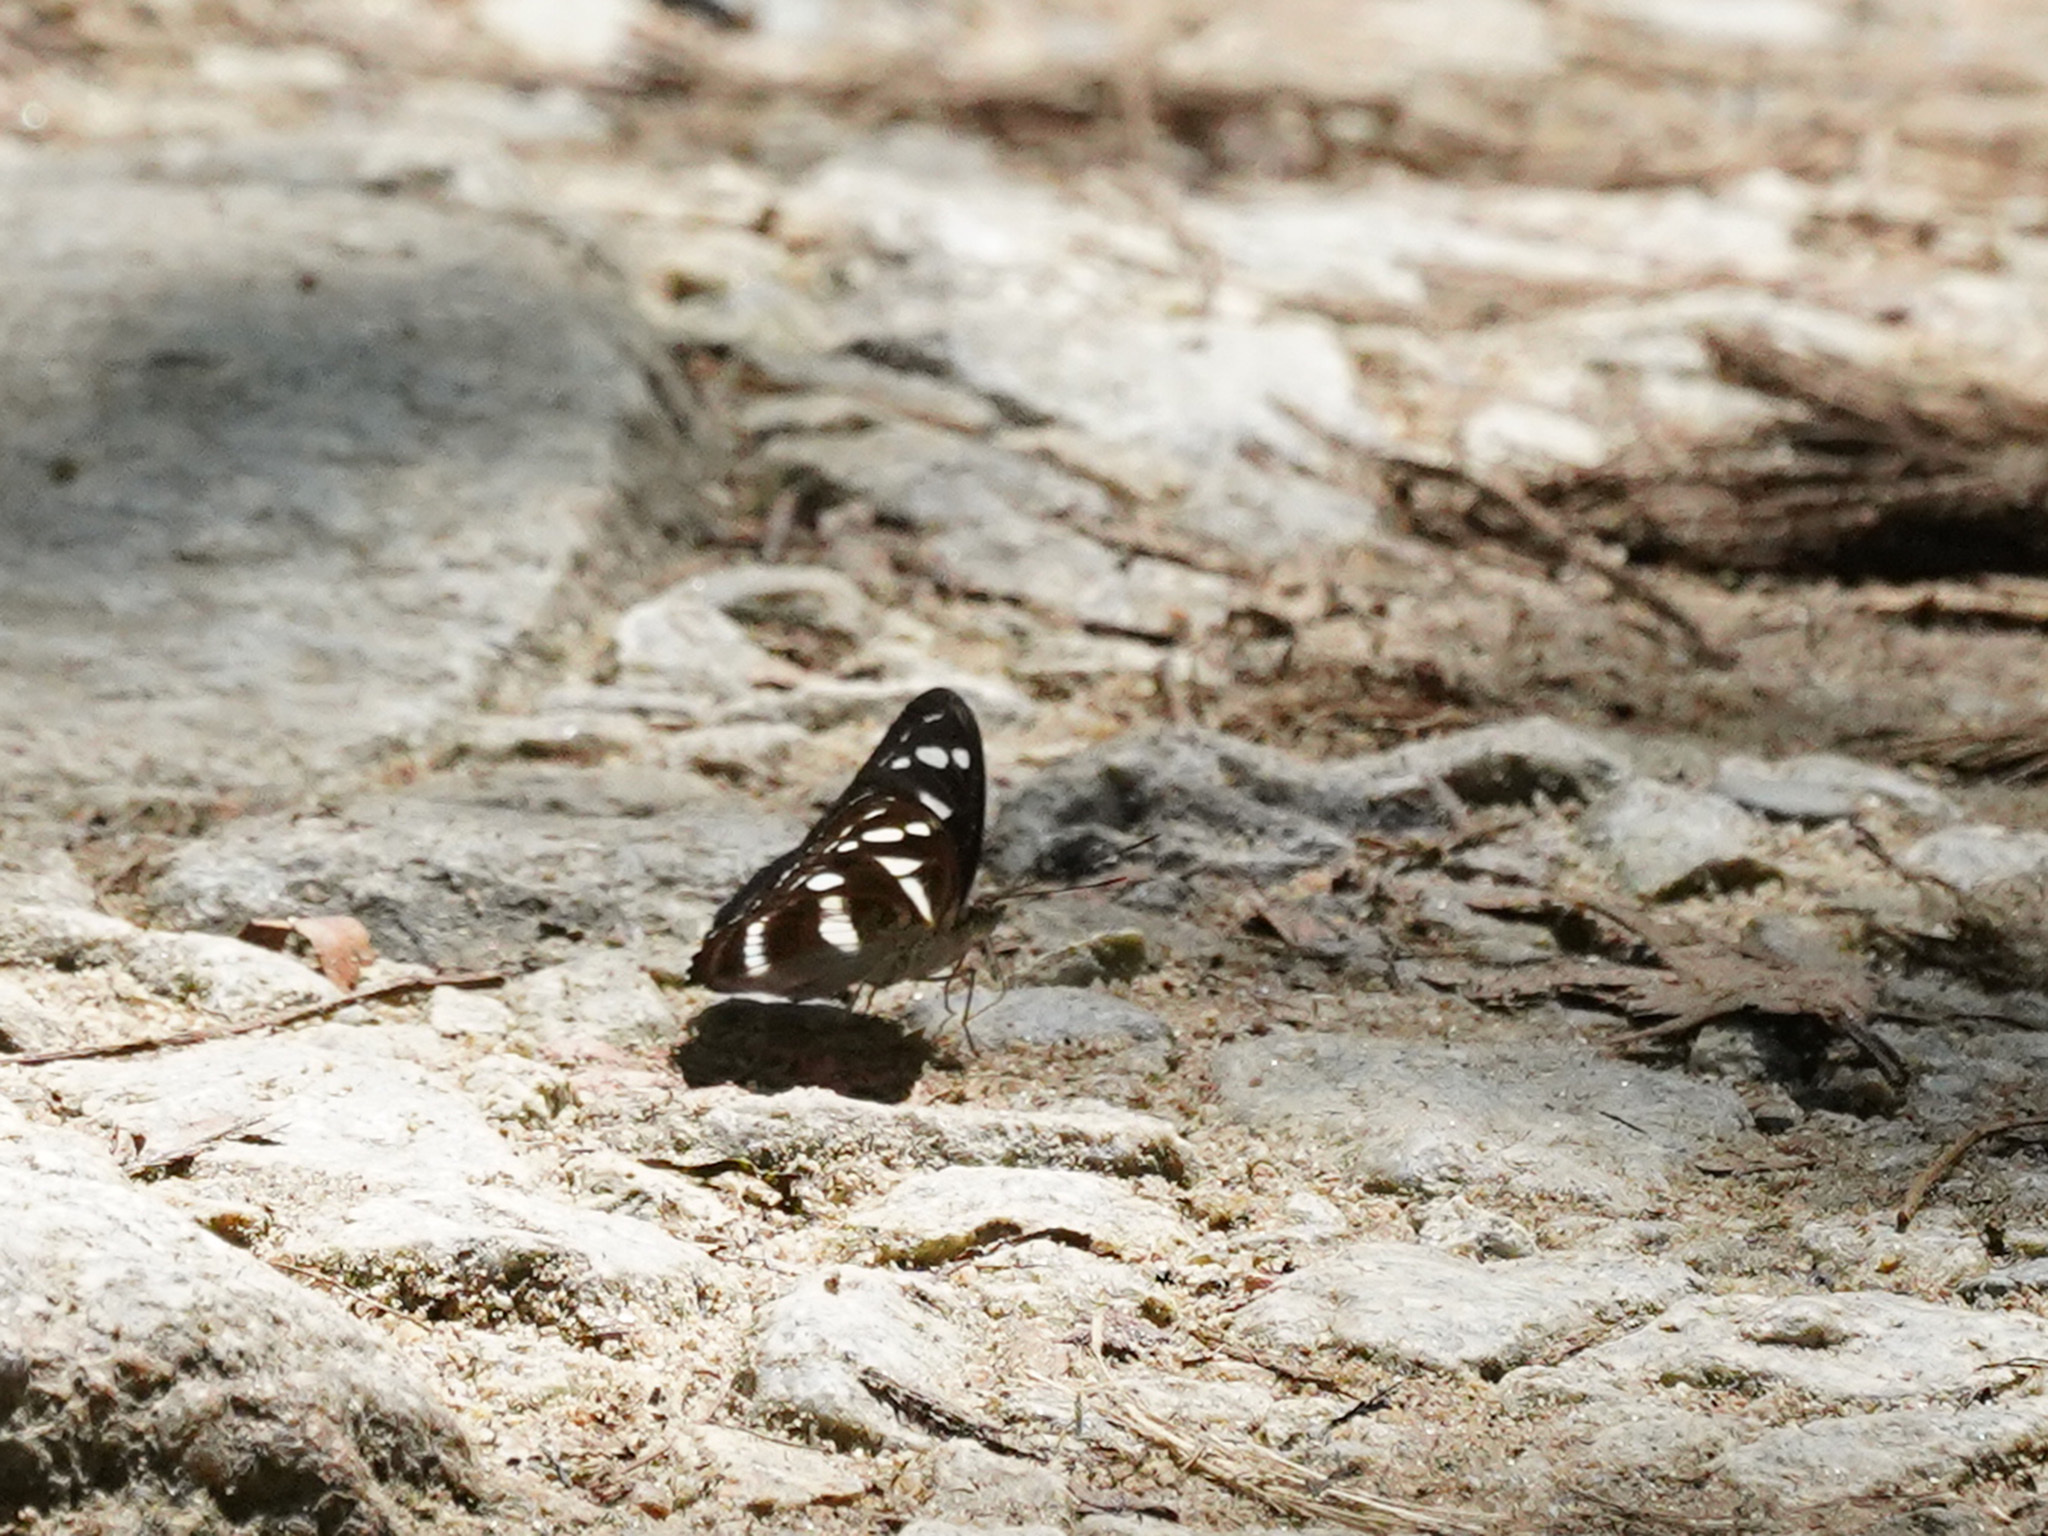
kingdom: Animalia
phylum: Arthropoda
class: Insecta
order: Lepidoptera
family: Nymphalidae
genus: Parathyma
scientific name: Parathyma kanwa
